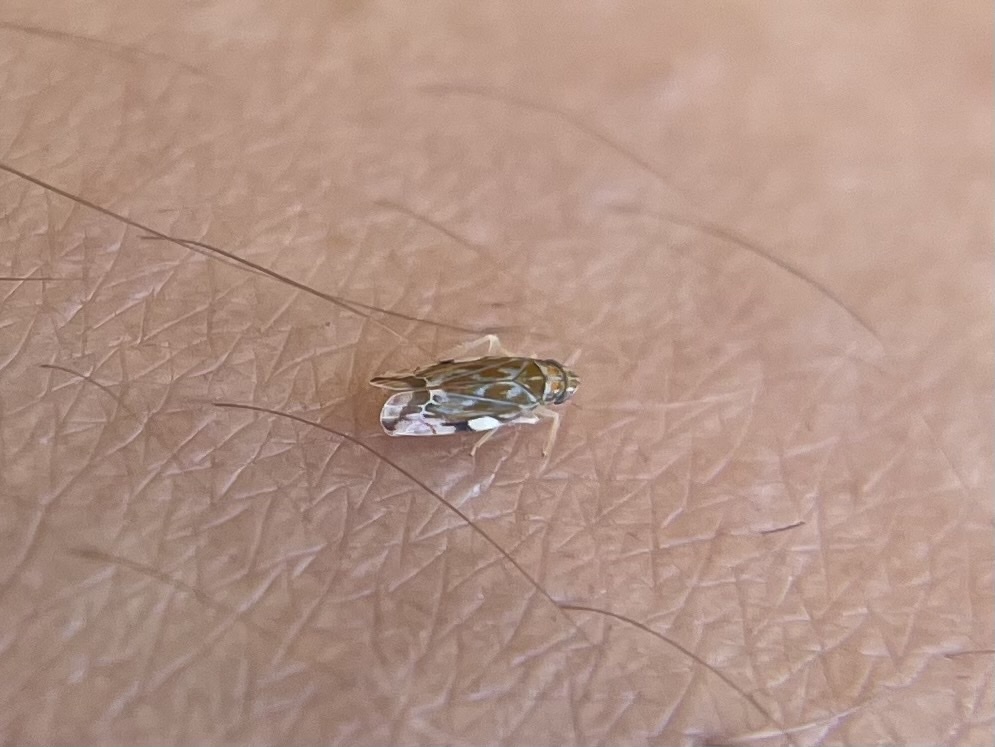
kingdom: Animalia
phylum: Arthropoda
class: Insecta
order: Hemiptera
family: Cicadellidae
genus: Erasmoneura
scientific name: Erasmoneura variabilis
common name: Variegated leafhopper
